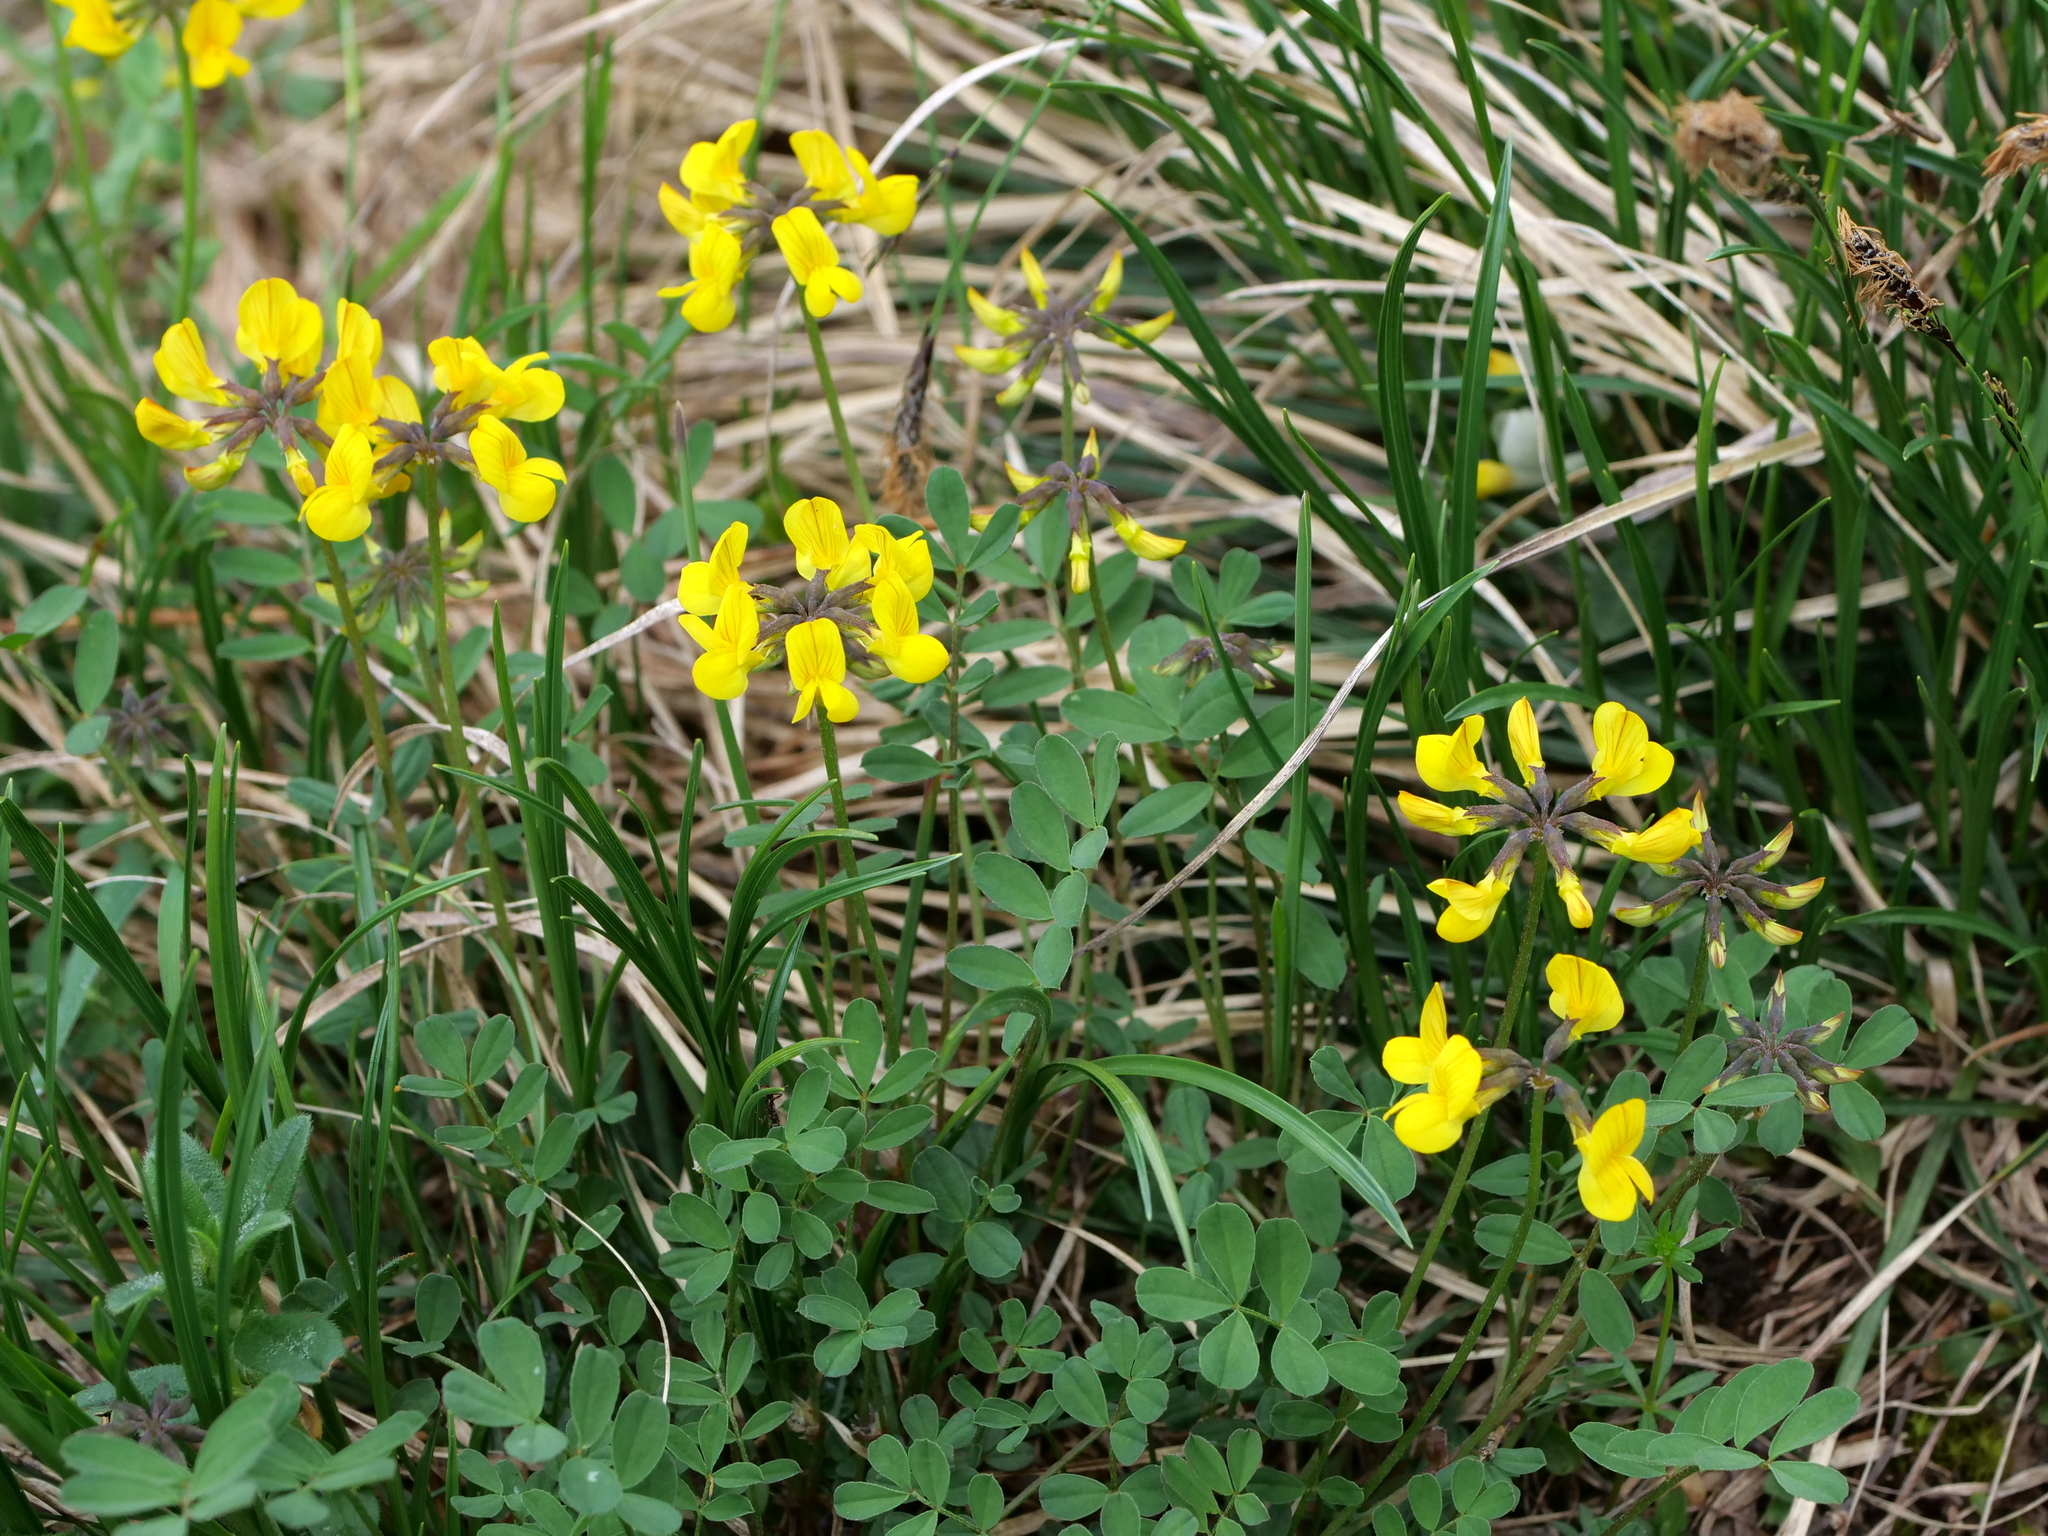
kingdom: Plantae
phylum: Tracheophyta
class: Magnoliopsida
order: Fabales
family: Fabaceae
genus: Hippocrepis
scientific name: Hippocrepis comosa
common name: Horseshoe vetch
